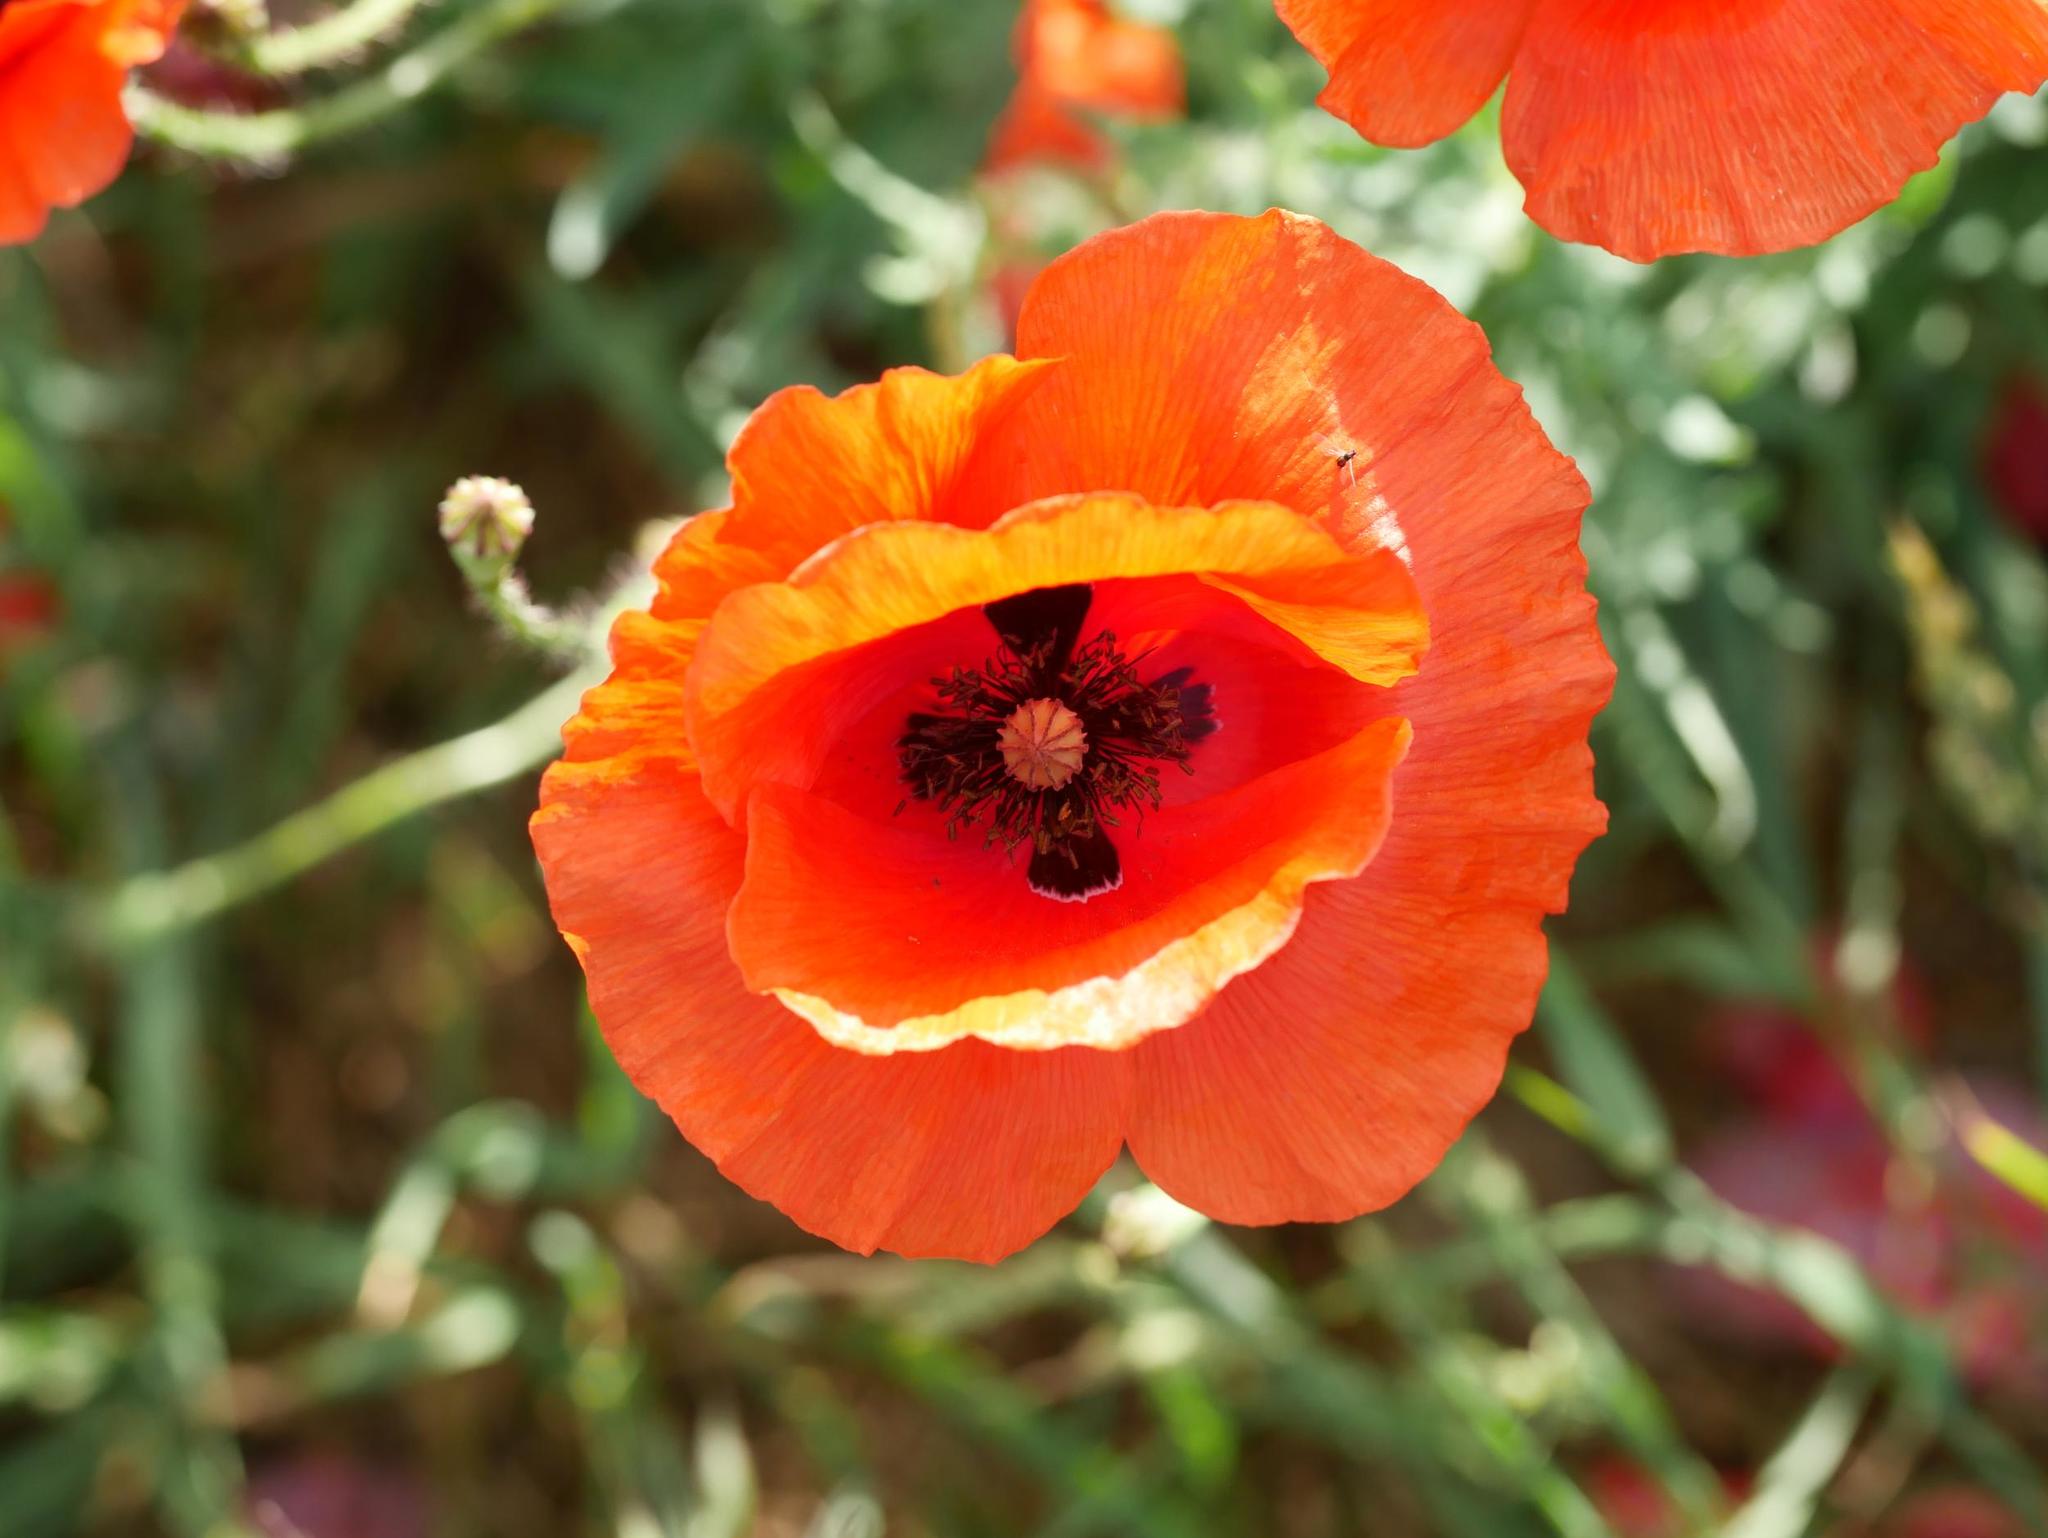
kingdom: Plantae
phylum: Tracheophyta
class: Magnoliopsida
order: Ranunculales
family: Papaveraceae
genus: Papaver
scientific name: Papaver rhoeas
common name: Corn poppy
